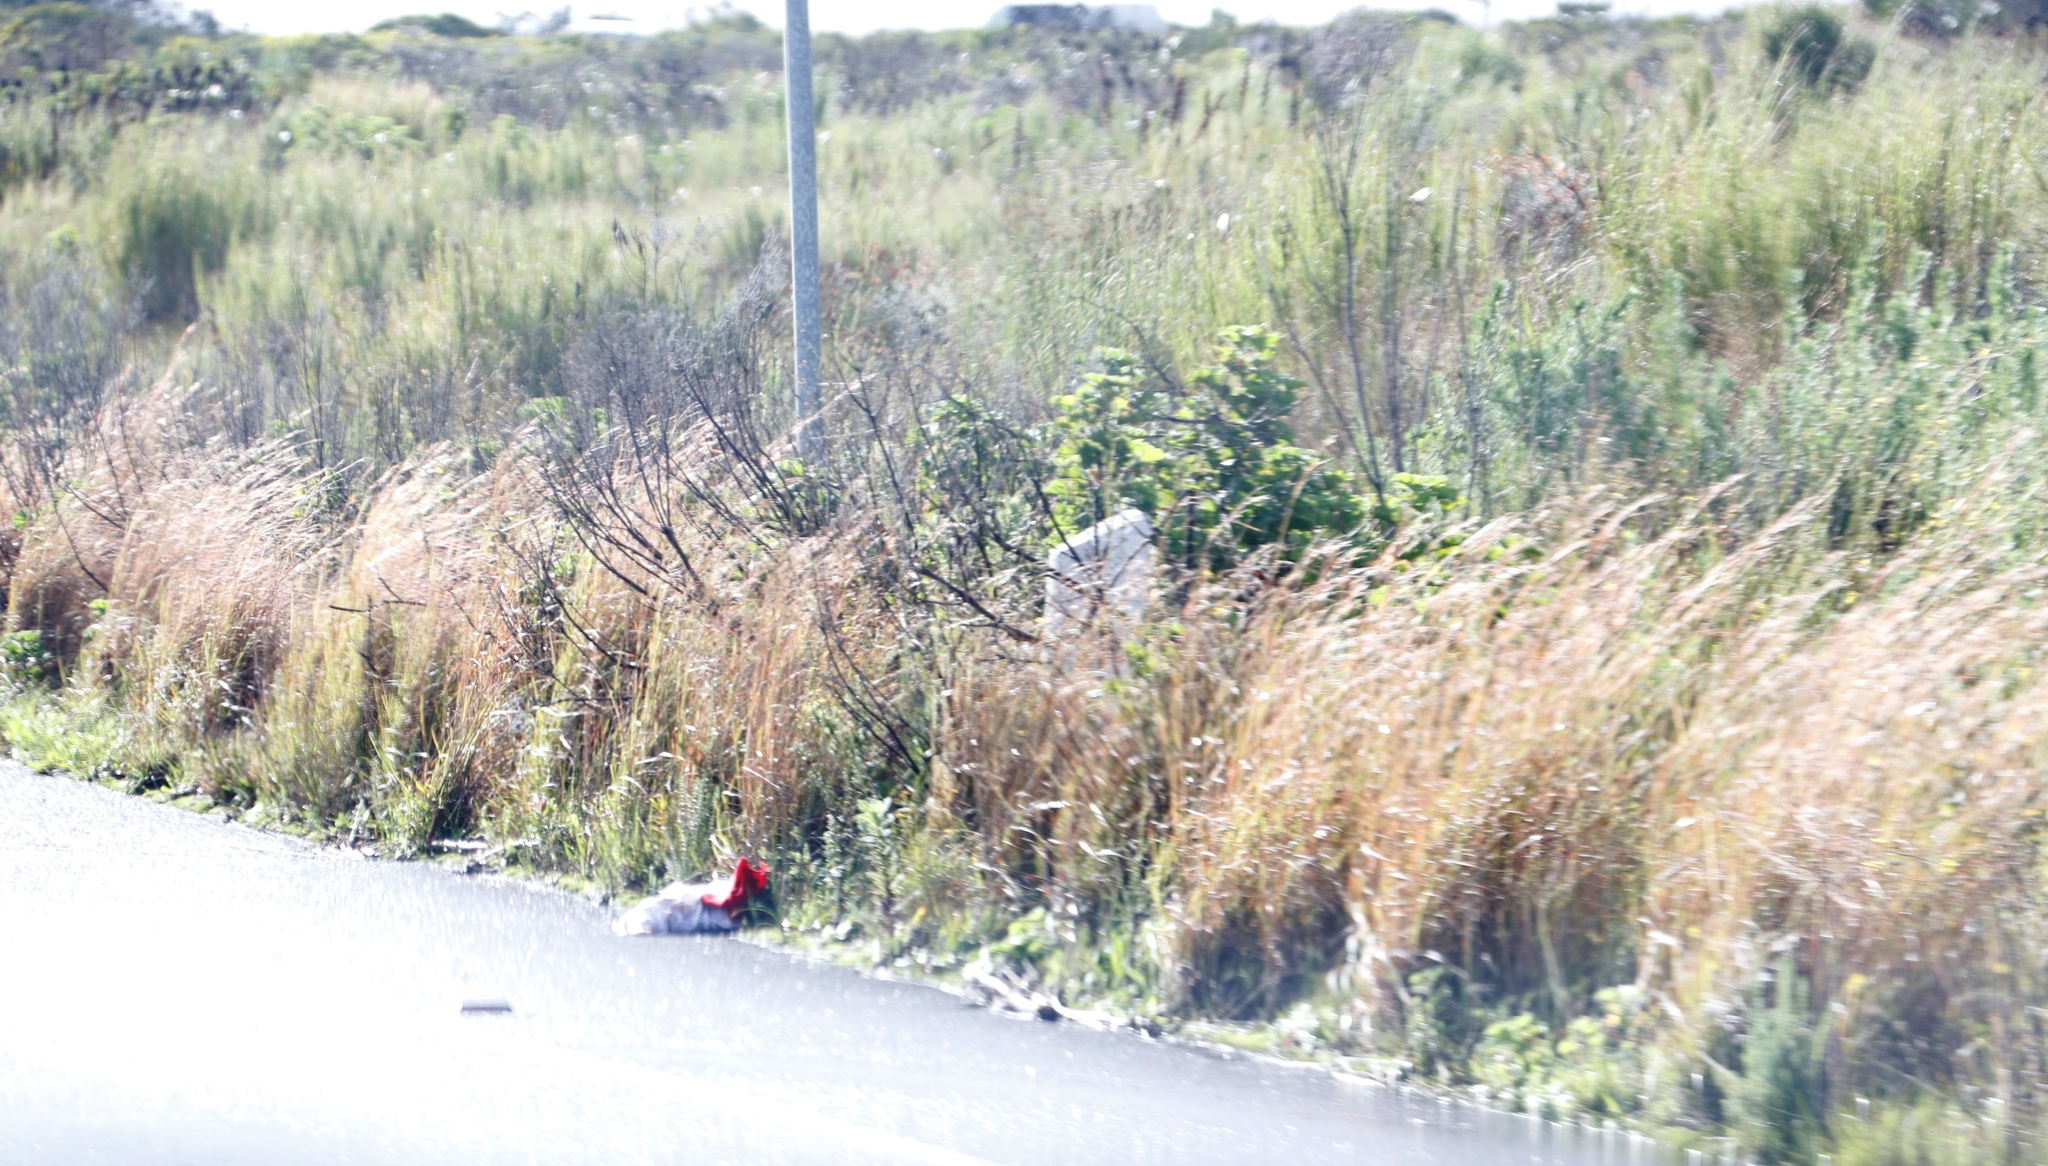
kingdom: Plantae
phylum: Tracheophyta
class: Liliopsida
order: Poales
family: Poaceae
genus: Hyparrhenia
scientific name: Hyparrhenia hirta
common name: Thatching grass
